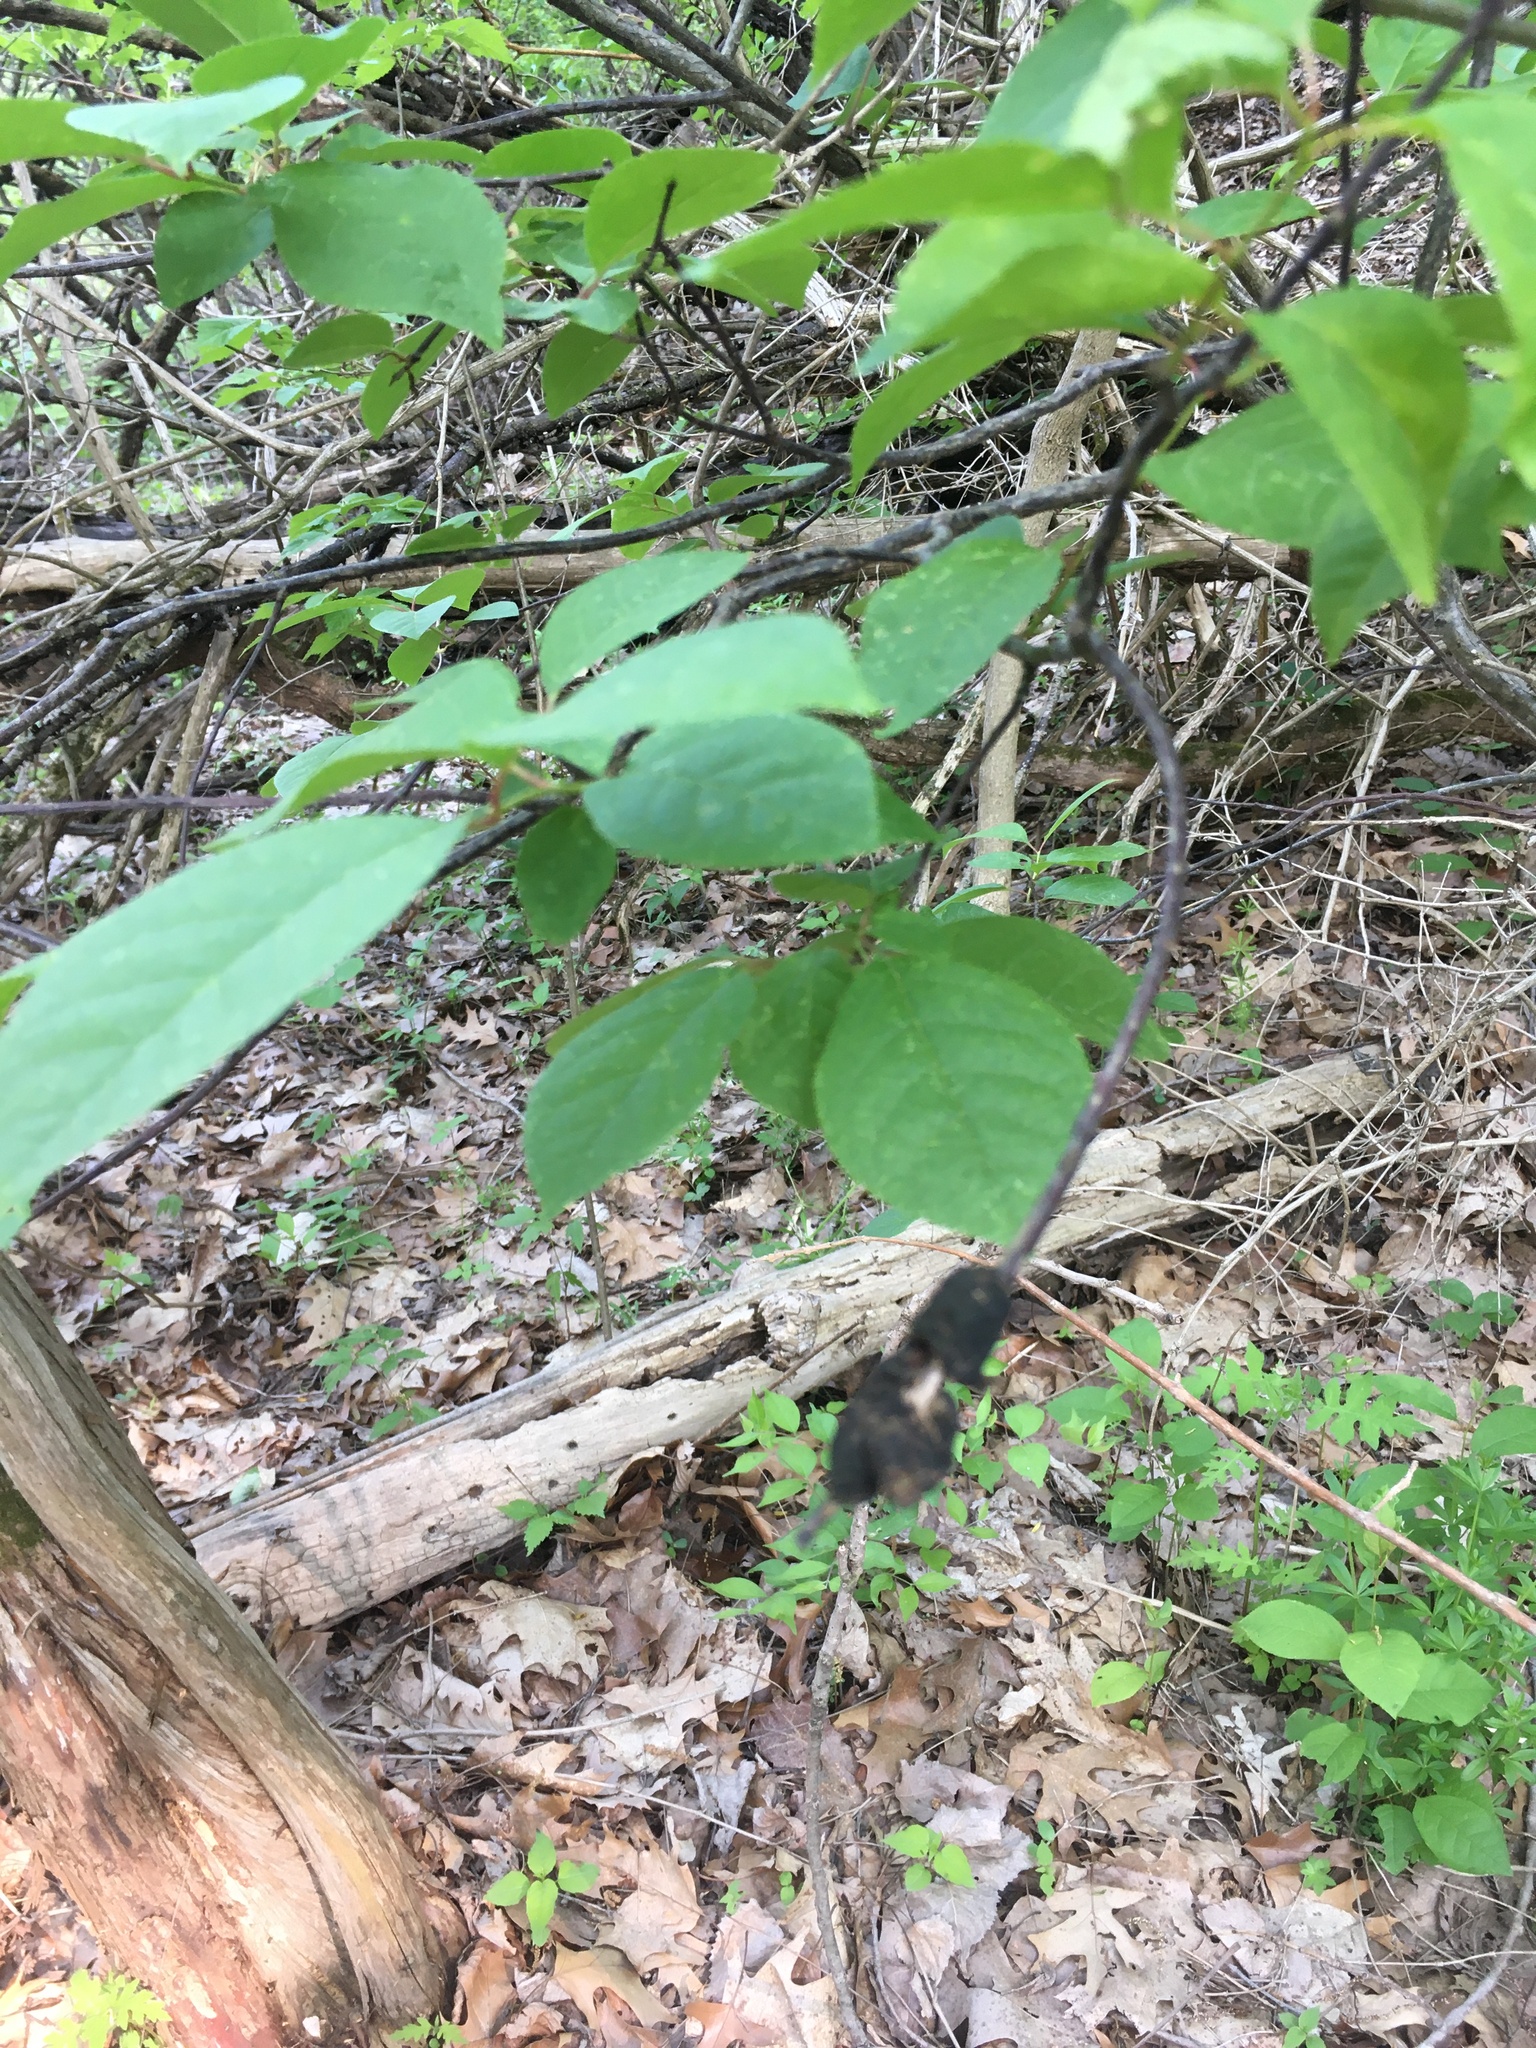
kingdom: Fungi
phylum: Ascomycota
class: Dothideomycetes
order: Venturiales
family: Venturiaceae
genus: Apiosporina
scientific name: Apiosporina morbosa
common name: Black knot
